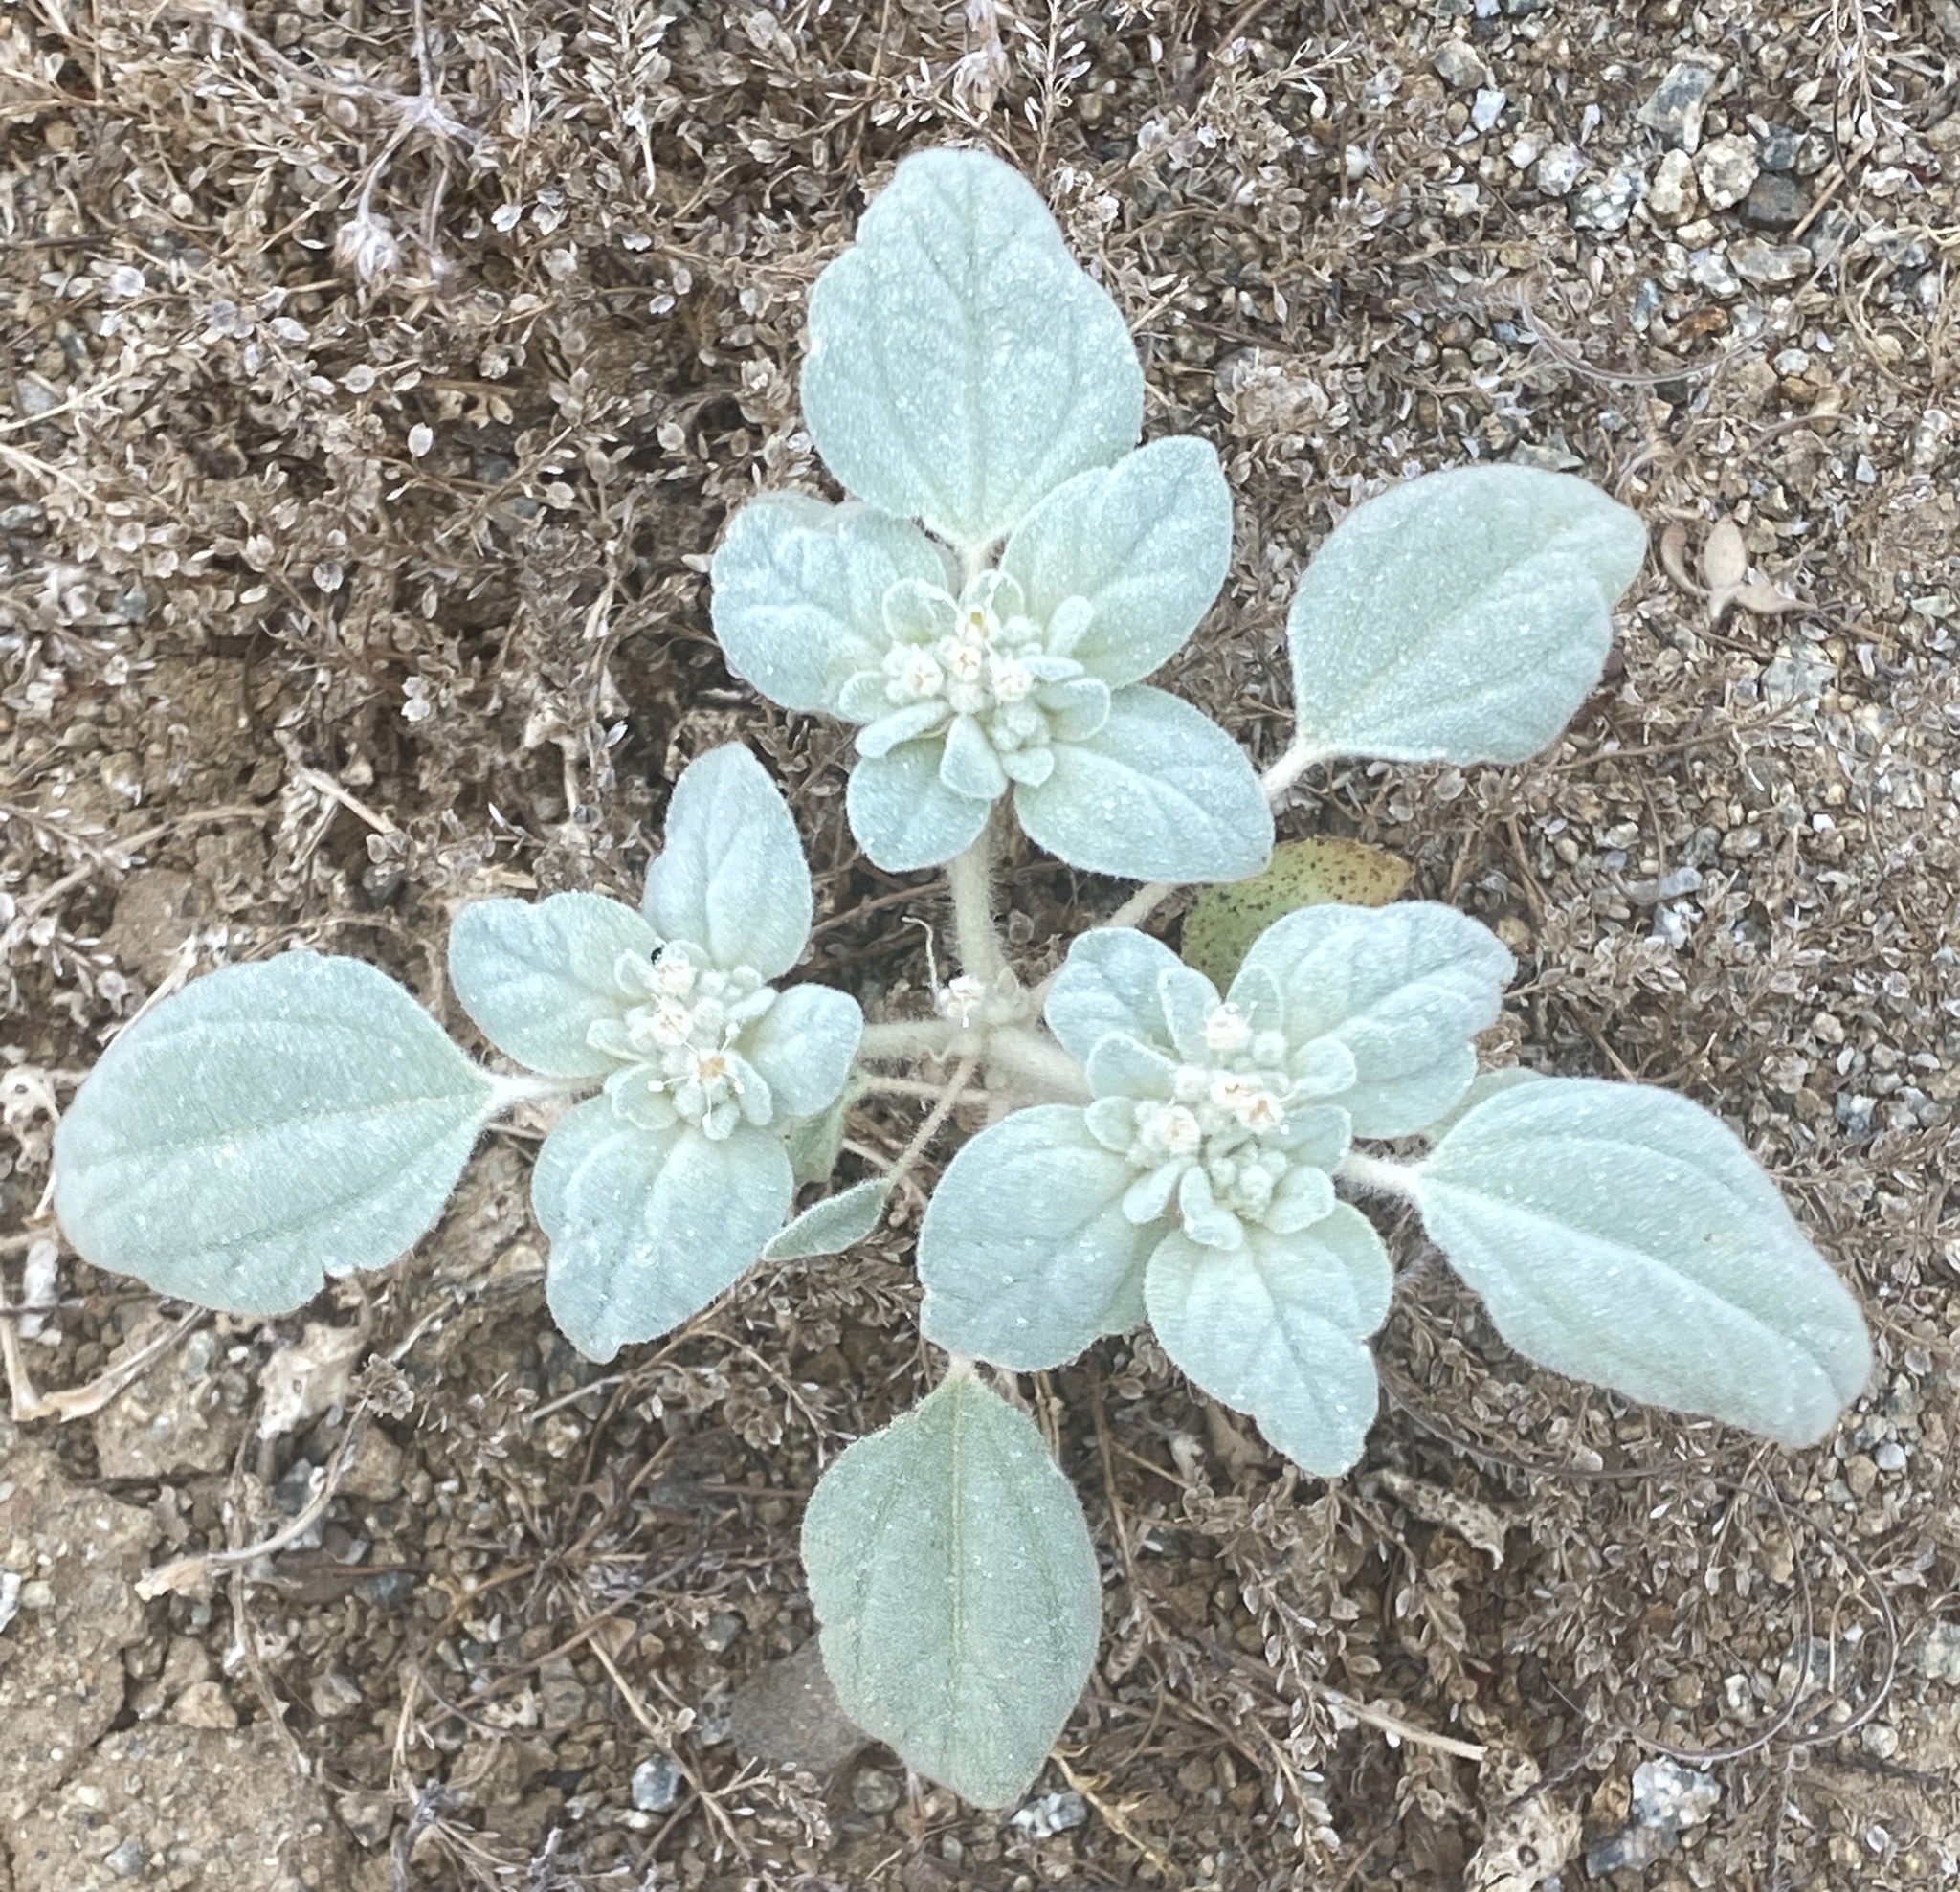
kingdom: Plantae
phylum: Tracheophyta
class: Magnoliopsida
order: Malpighiales
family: Euphorbiaceae
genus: Croton
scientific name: Croton setiger
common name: Dove weed
